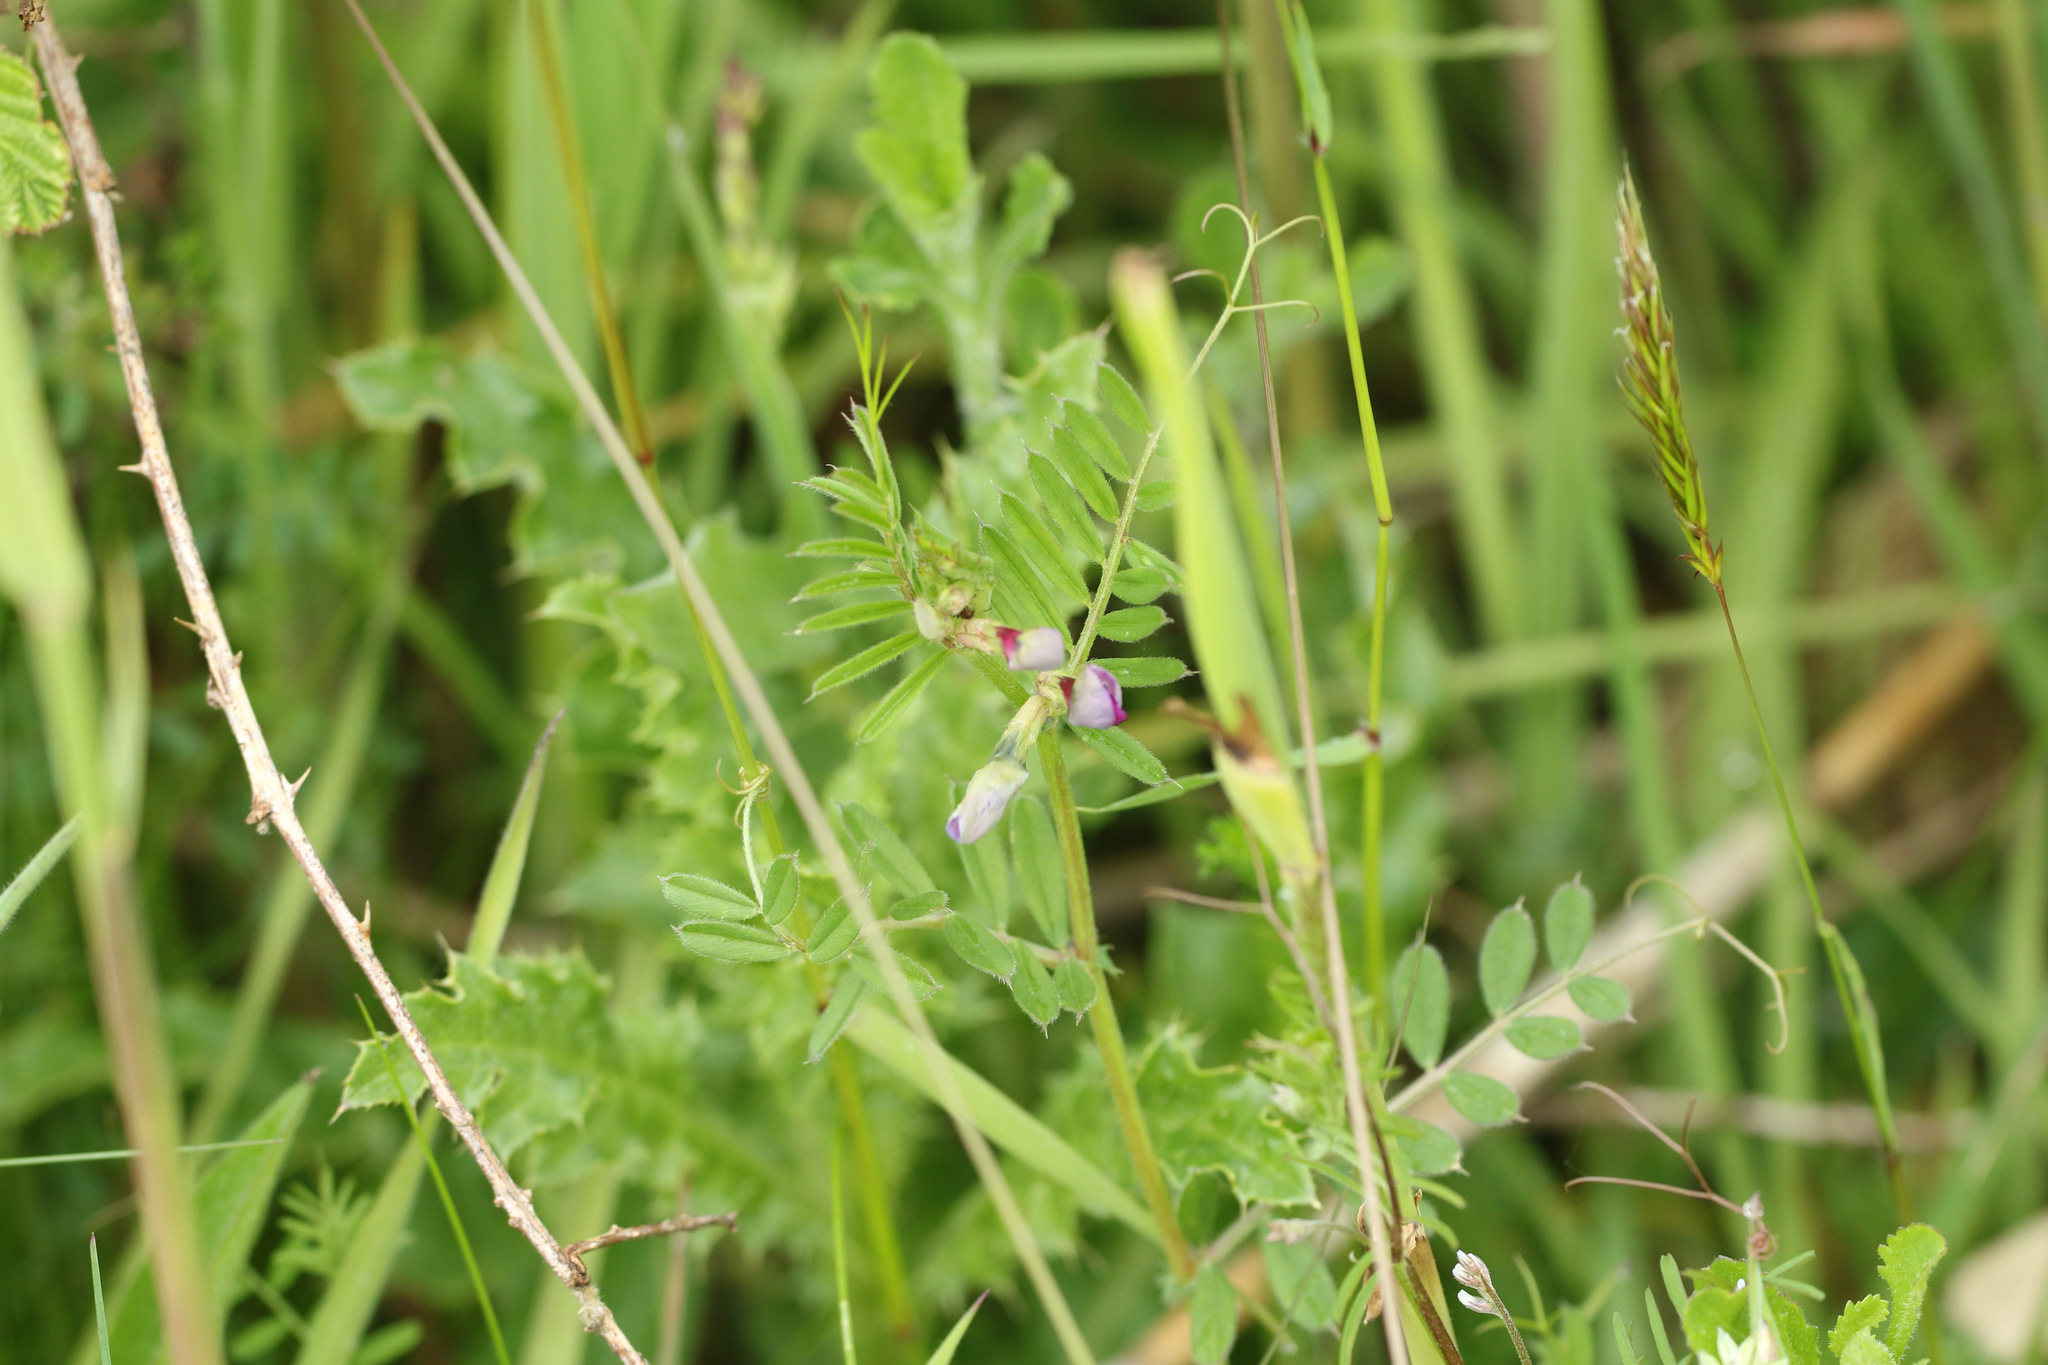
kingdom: Plantae
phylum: Tracheophyta
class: Magnoliopsida
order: Fabales
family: Fabaceae
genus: Vicia
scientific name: Vicia sativa
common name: Garden vetch
